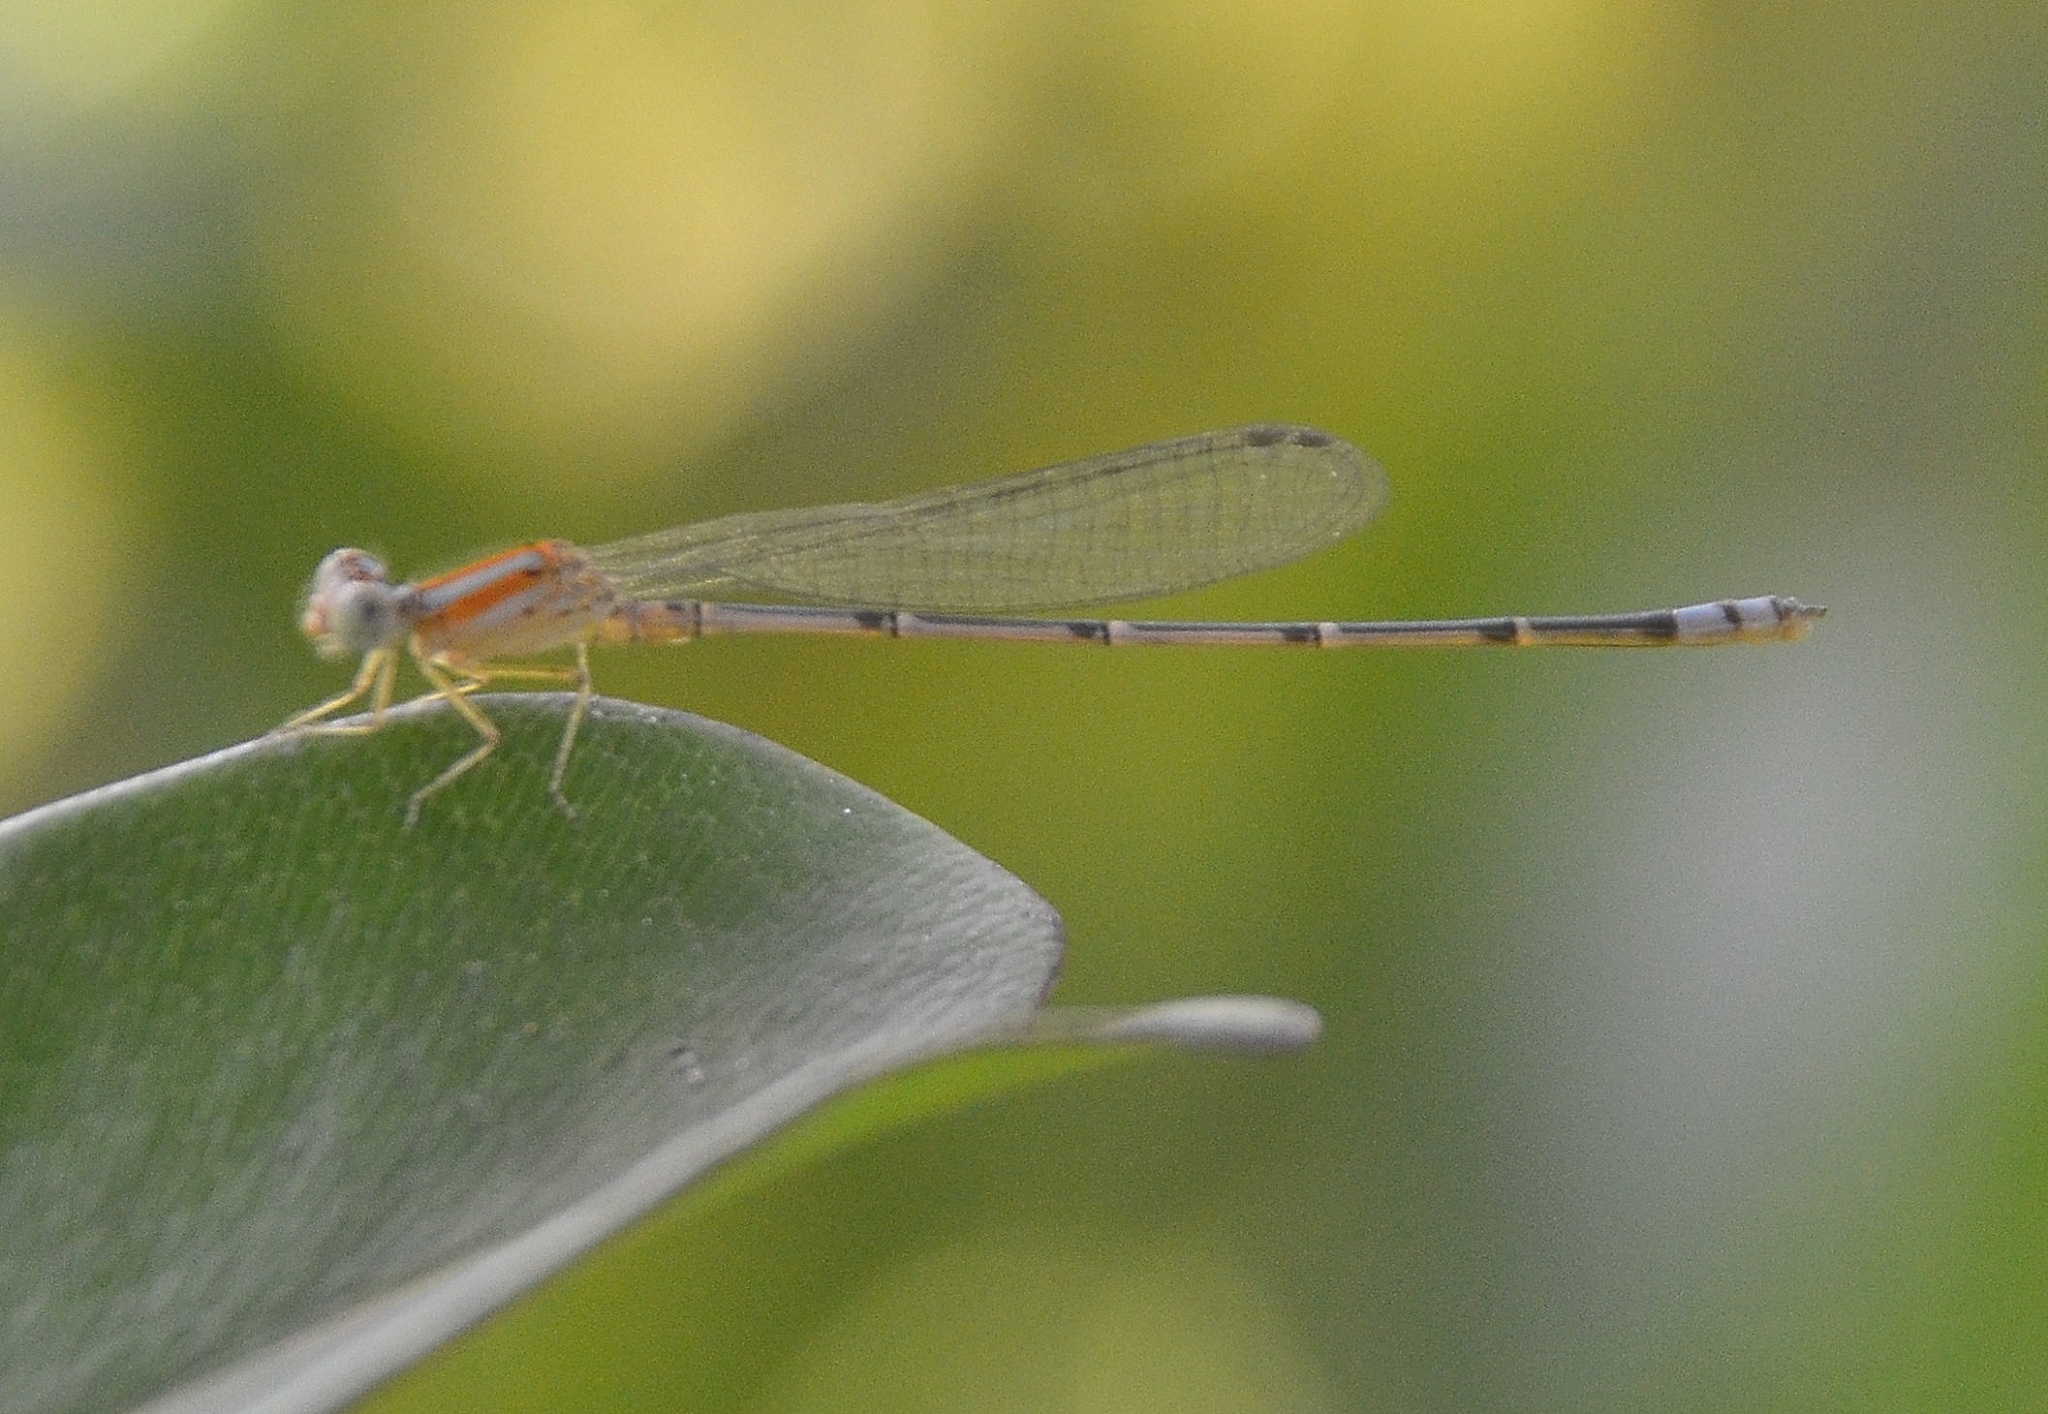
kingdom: Animalia
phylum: Arthropoda
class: Insecta
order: Odonata
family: Coenagrionidae
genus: Pseudagrion
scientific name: Pseudagrion microcephalum
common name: Blue riverdamsel
